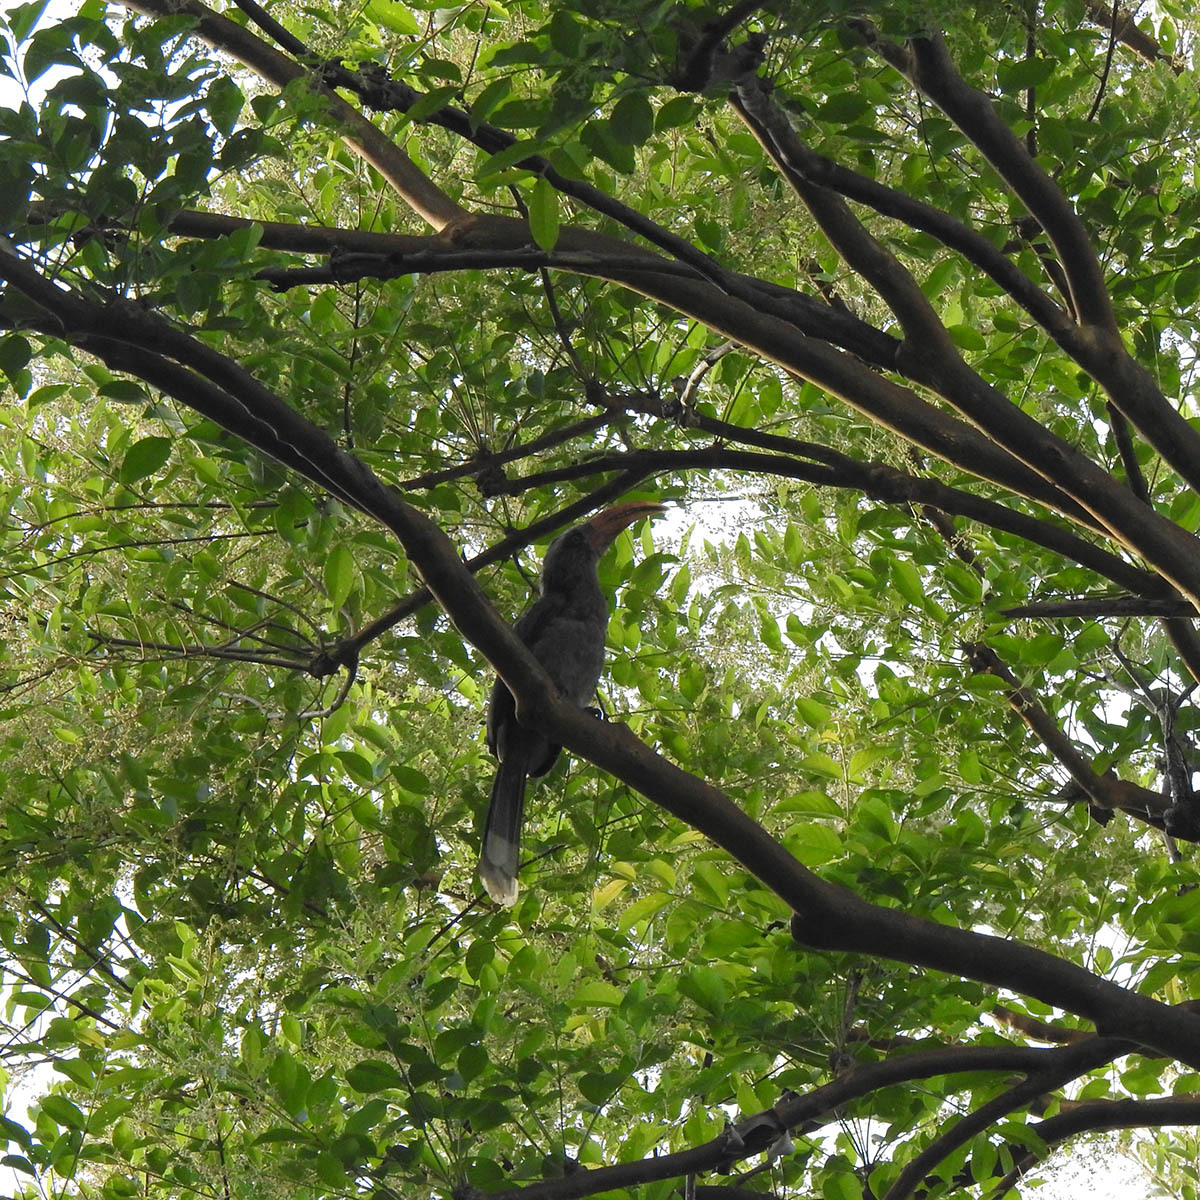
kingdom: Animalia
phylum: Chordata
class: Aves
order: Bucerotiformes
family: Bucerotidae
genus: Ocyceros
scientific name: Ocyceros griseus
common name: Malabar grey hornbill
